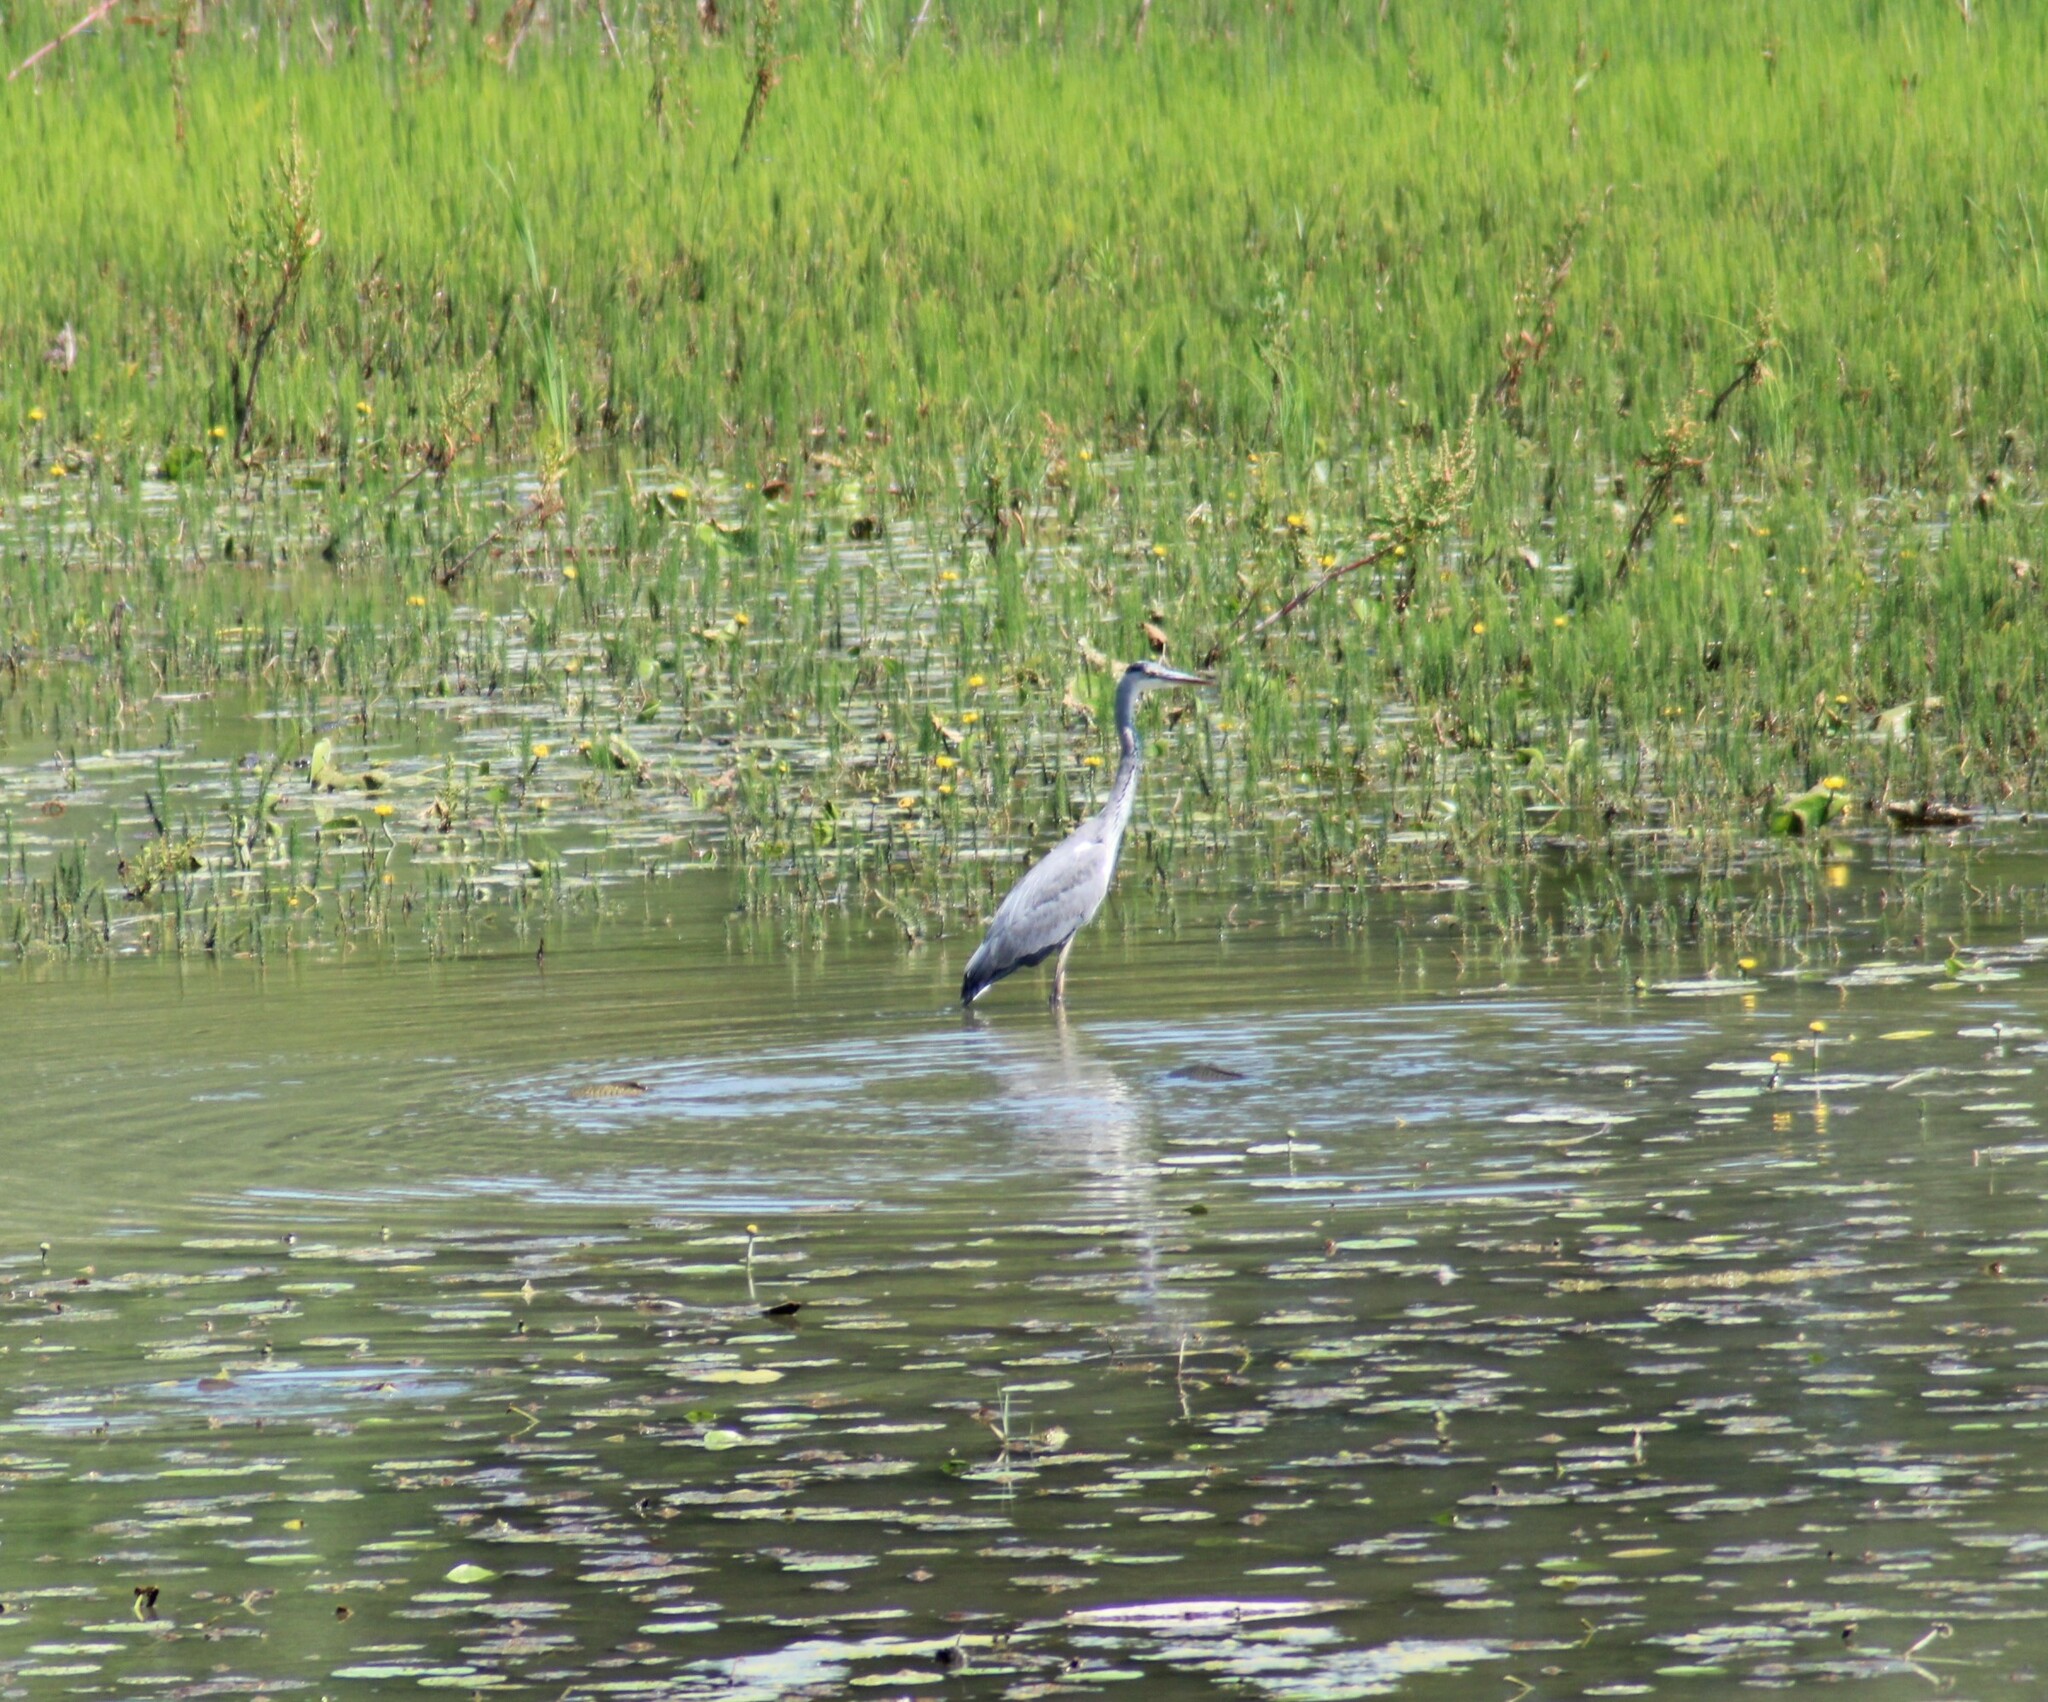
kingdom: Animalia
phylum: Chordata
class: Aves
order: Pelecaniformes
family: Ardeidae
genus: Ardea
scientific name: Ardea cinerea
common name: Grey heron
